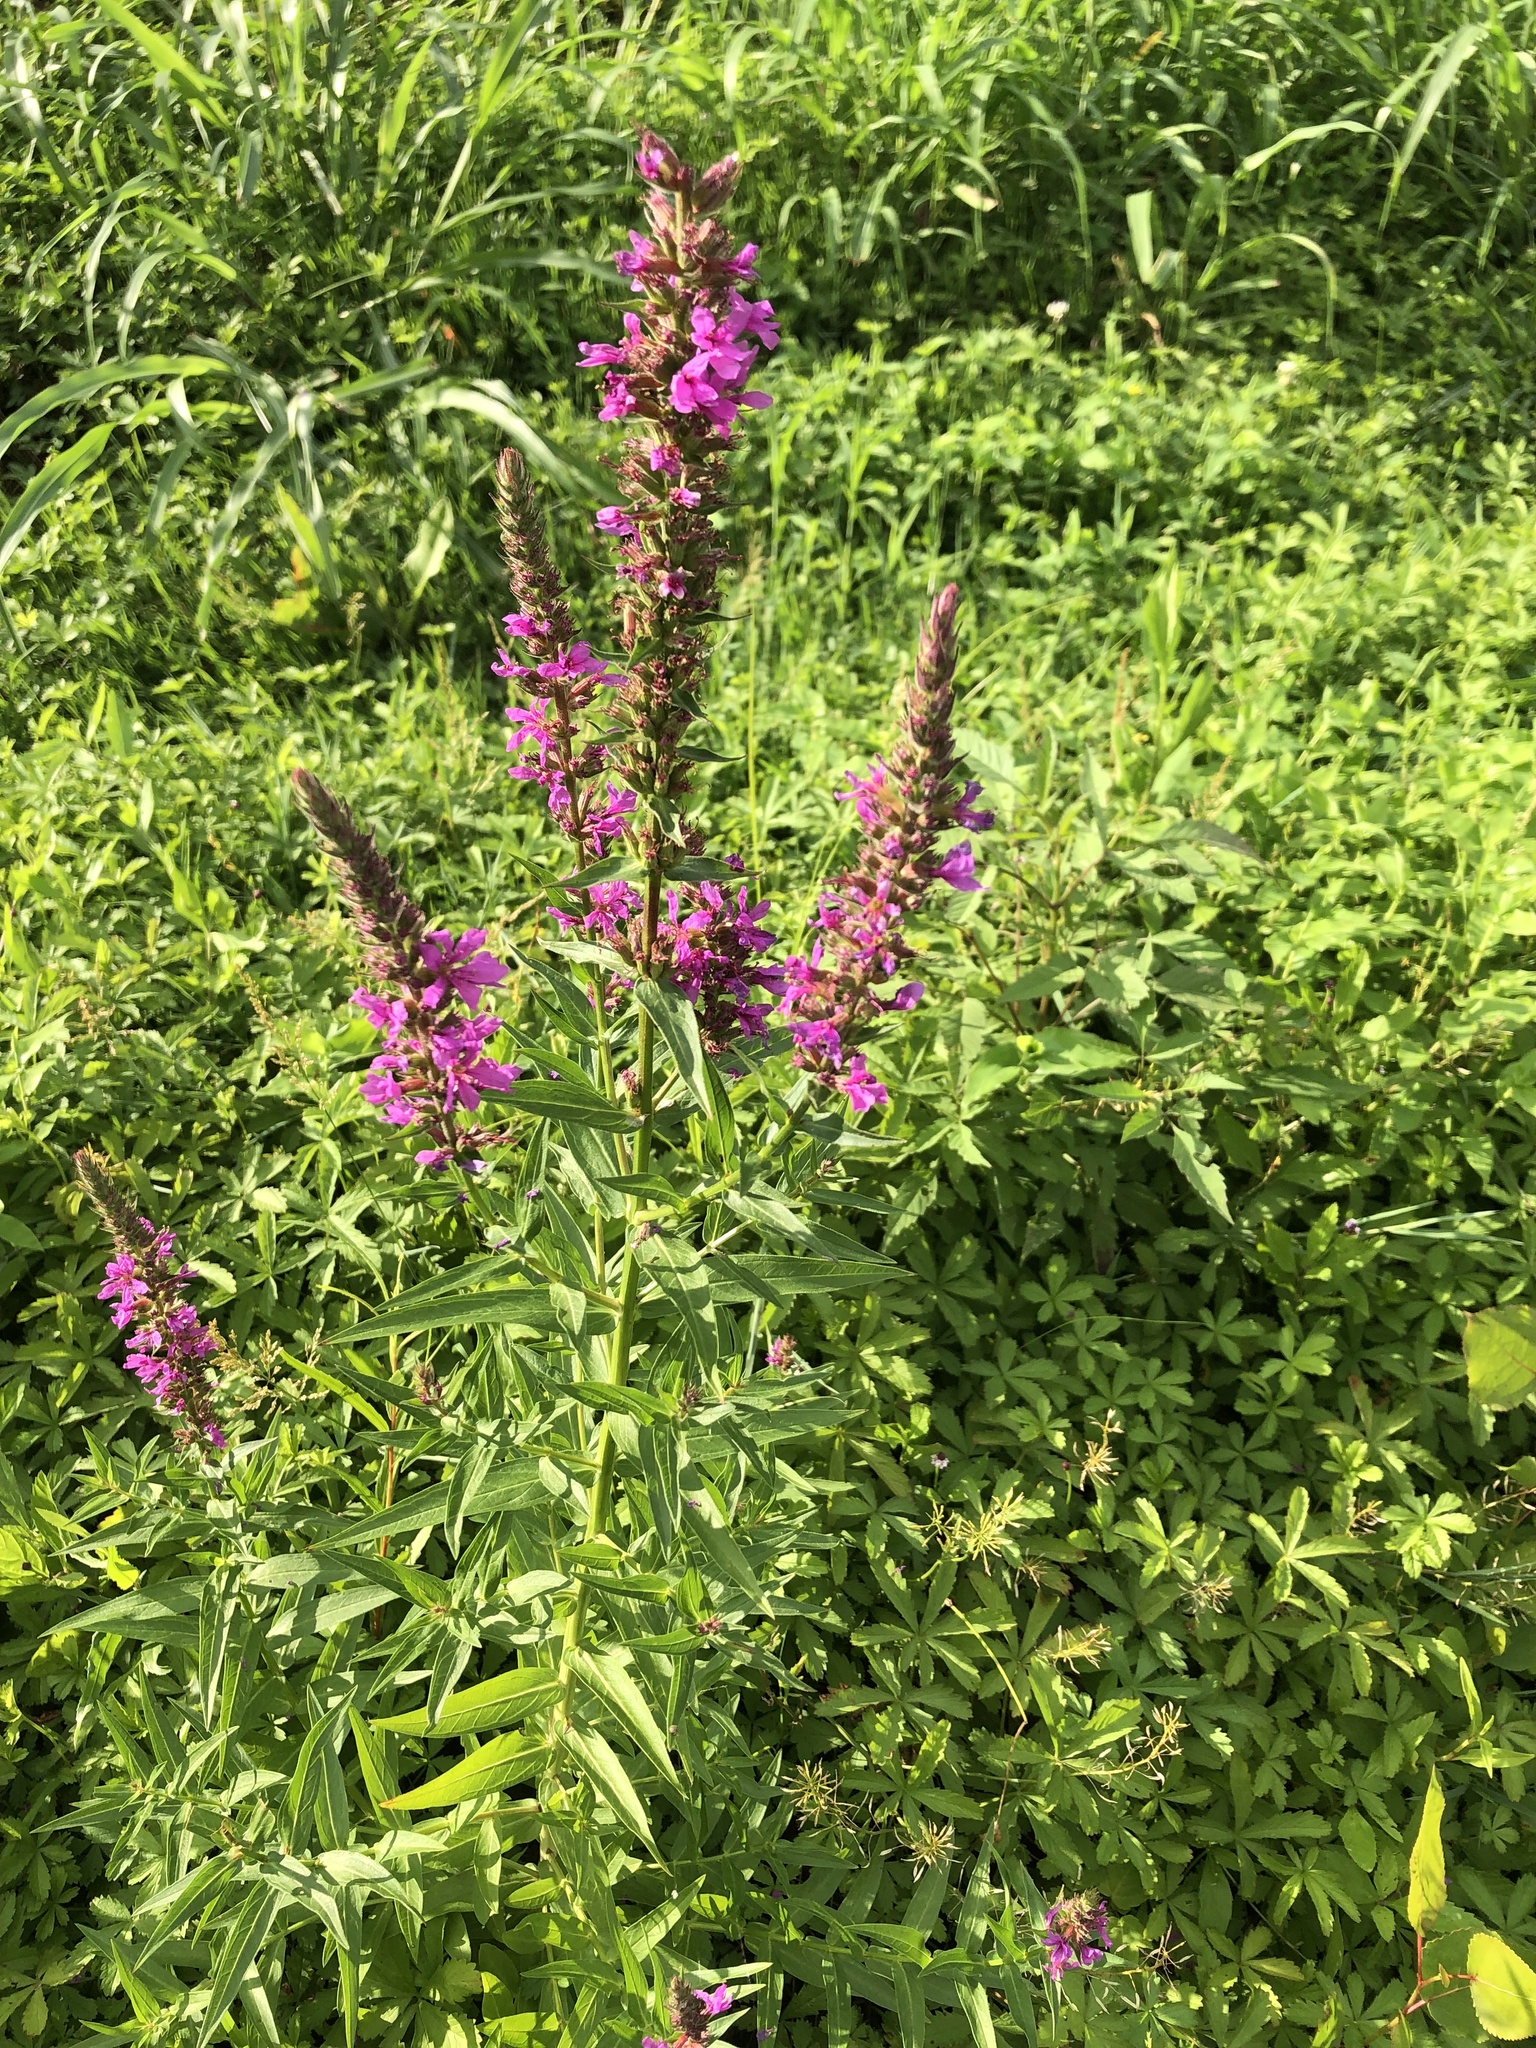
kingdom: Plantae
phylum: Tracheophyta
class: Magnoliopsida
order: Myrtales
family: Lythraceae
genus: Lythrum
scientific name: Lythrum salicaria
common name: Purple loosestrife
